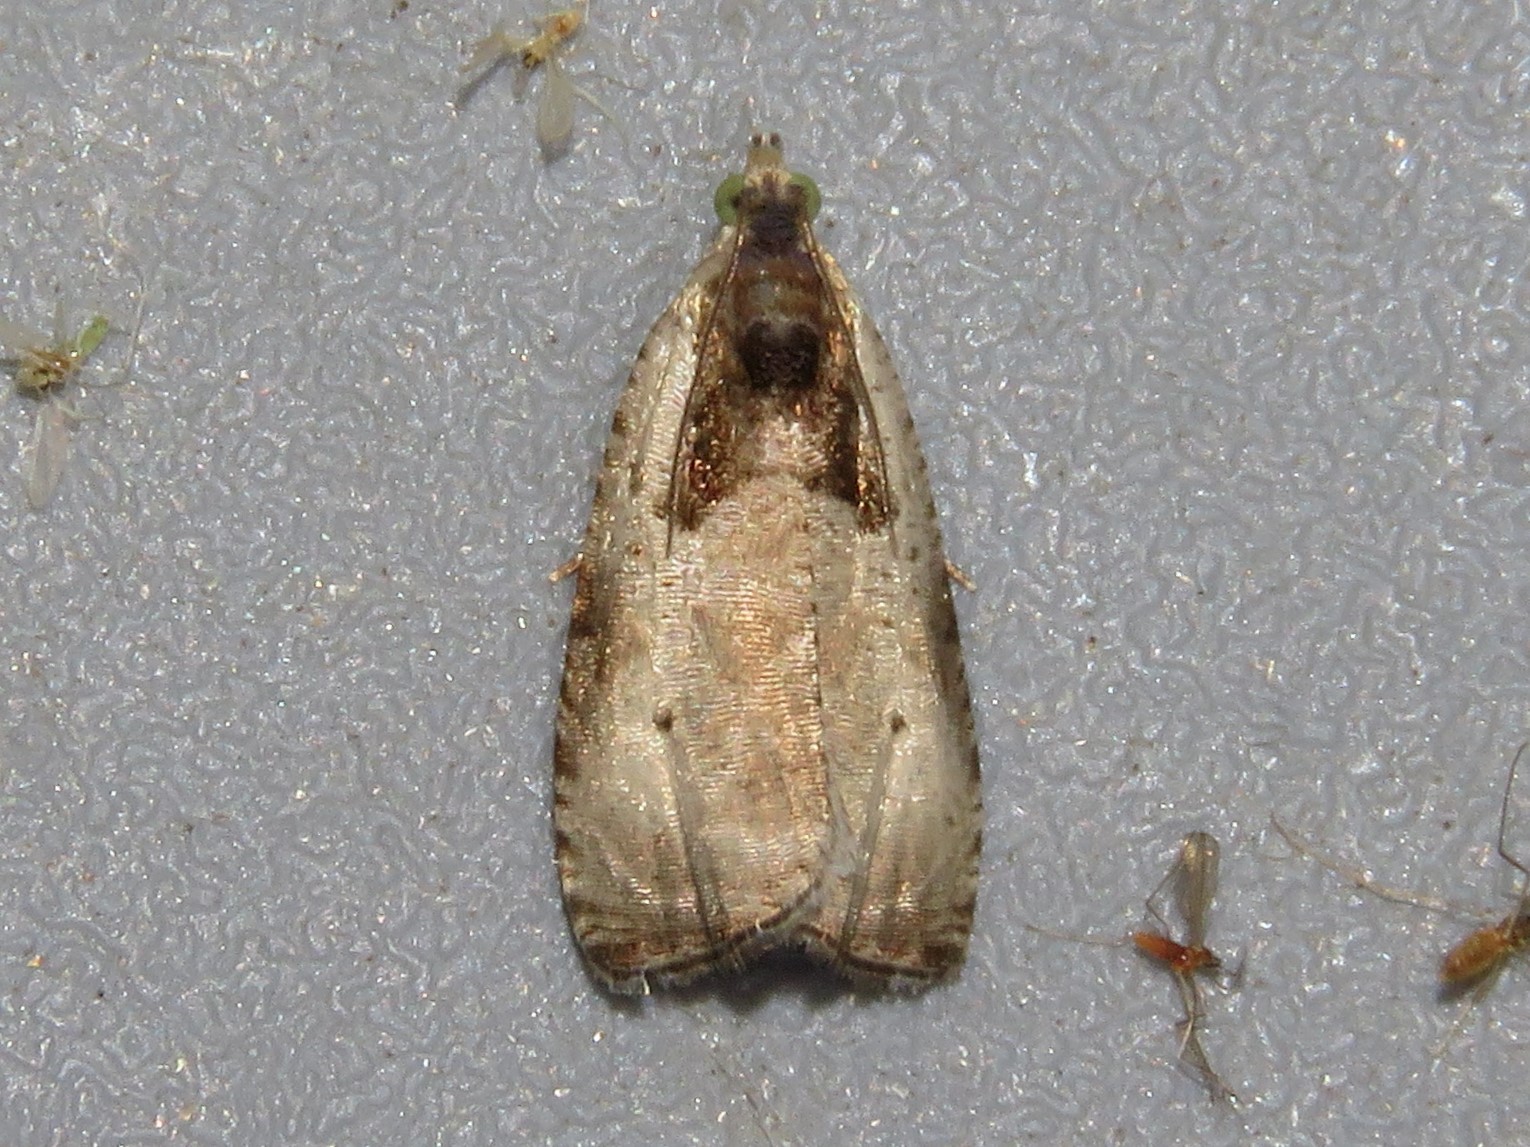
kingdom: Animalia
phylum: Arthropoda
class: Insecta
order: Lepidoptera
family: Tortricidae
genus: Olethreutes
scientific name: Olethreutes punctanum
